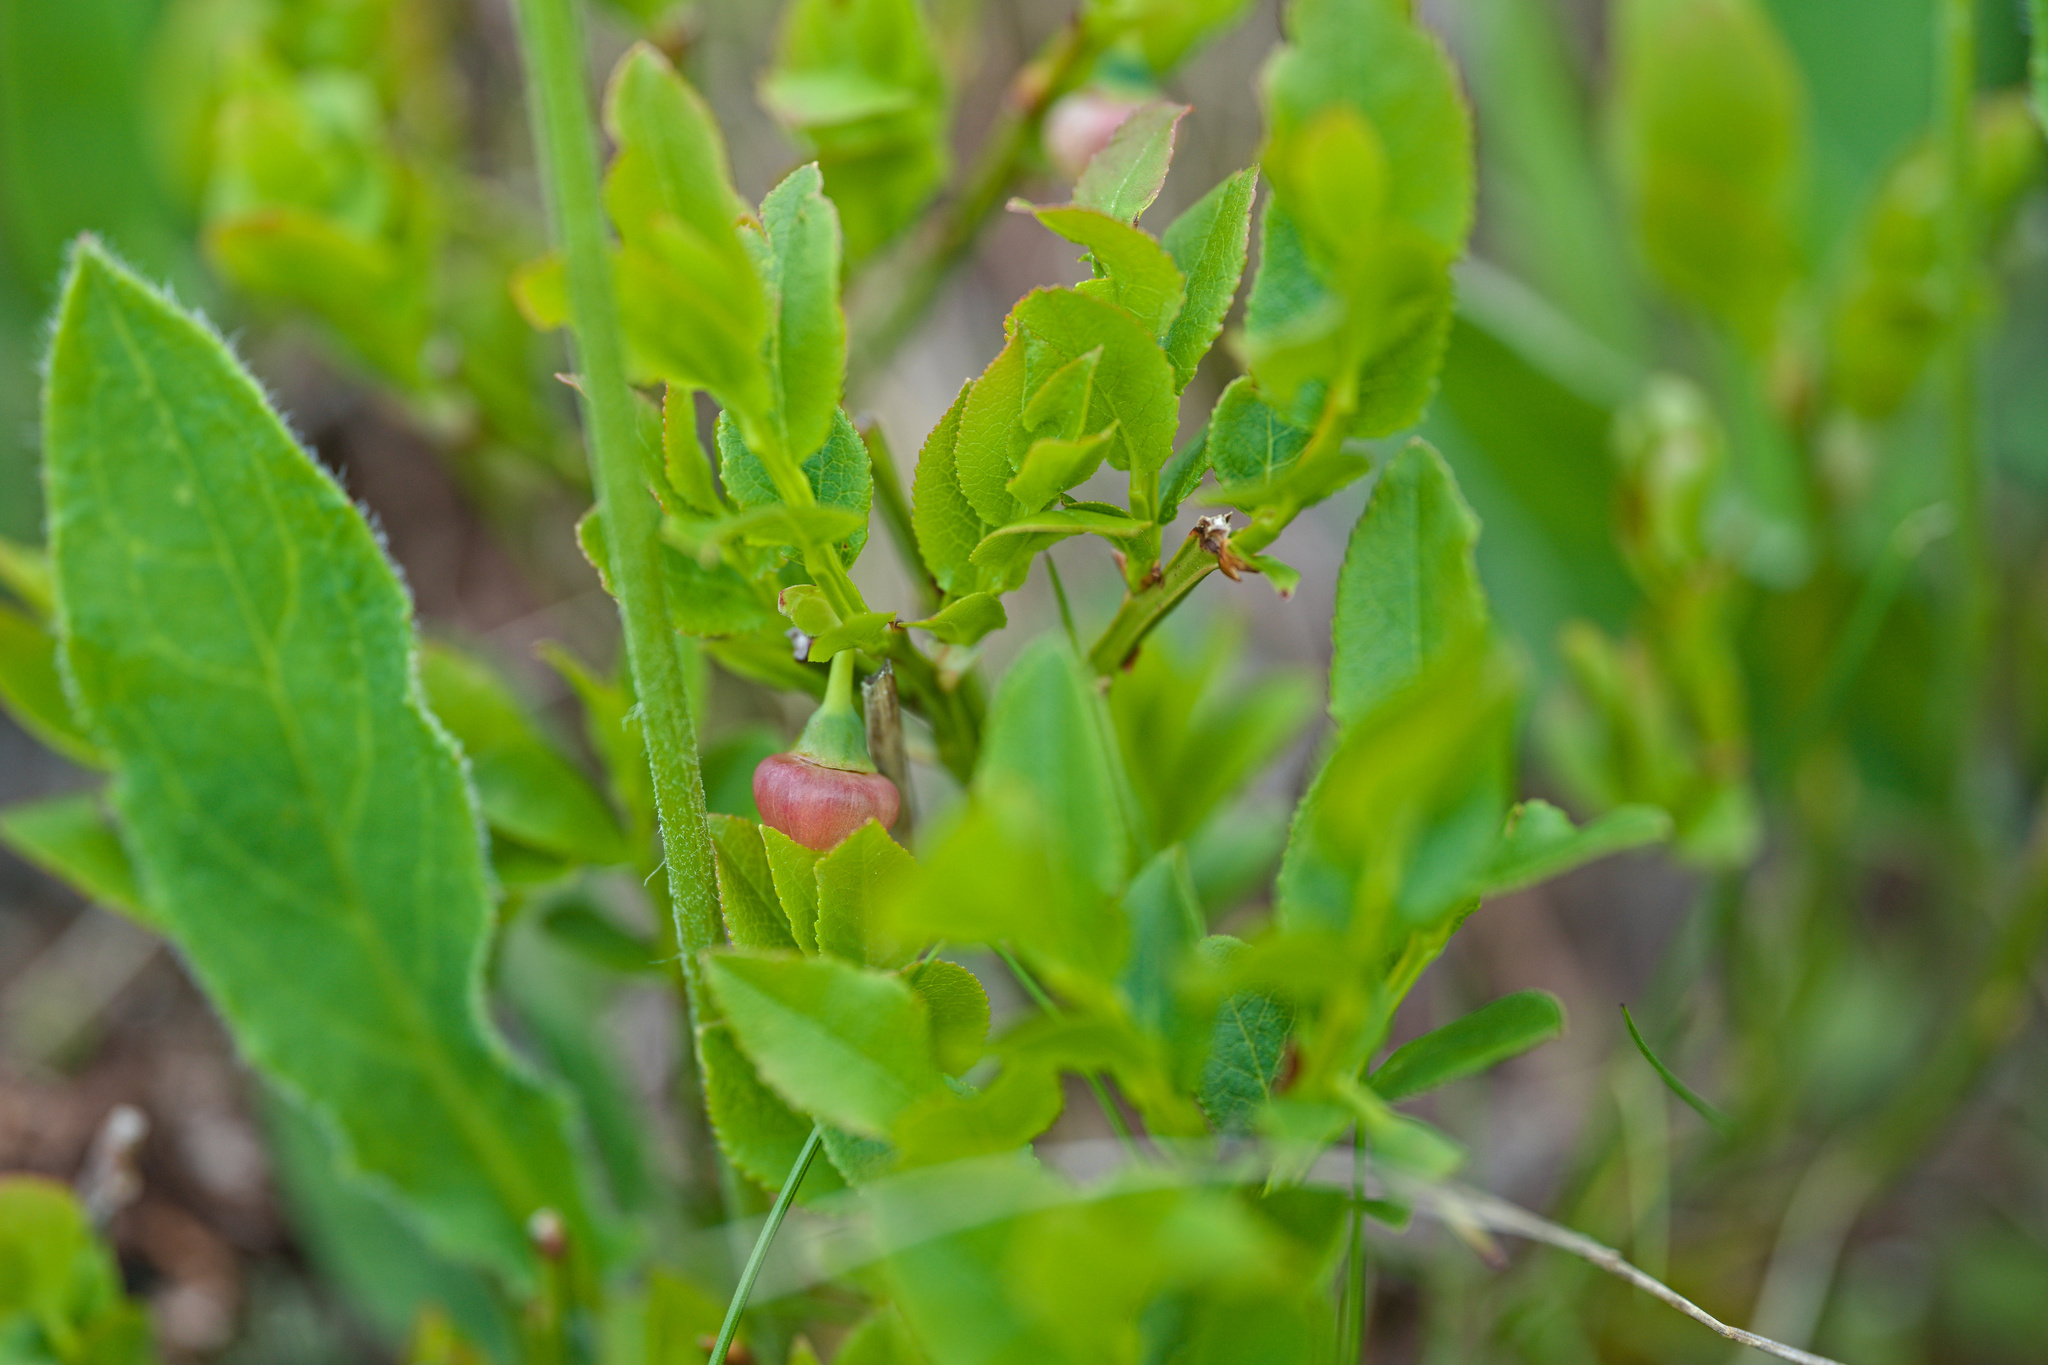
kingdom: Plantae
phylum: Tracheophyta
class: Magnoliopsida
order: Ericales
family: Ericaceae
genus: Vaccinium
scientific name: Vaccinium myrtillus
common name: Bilberry
